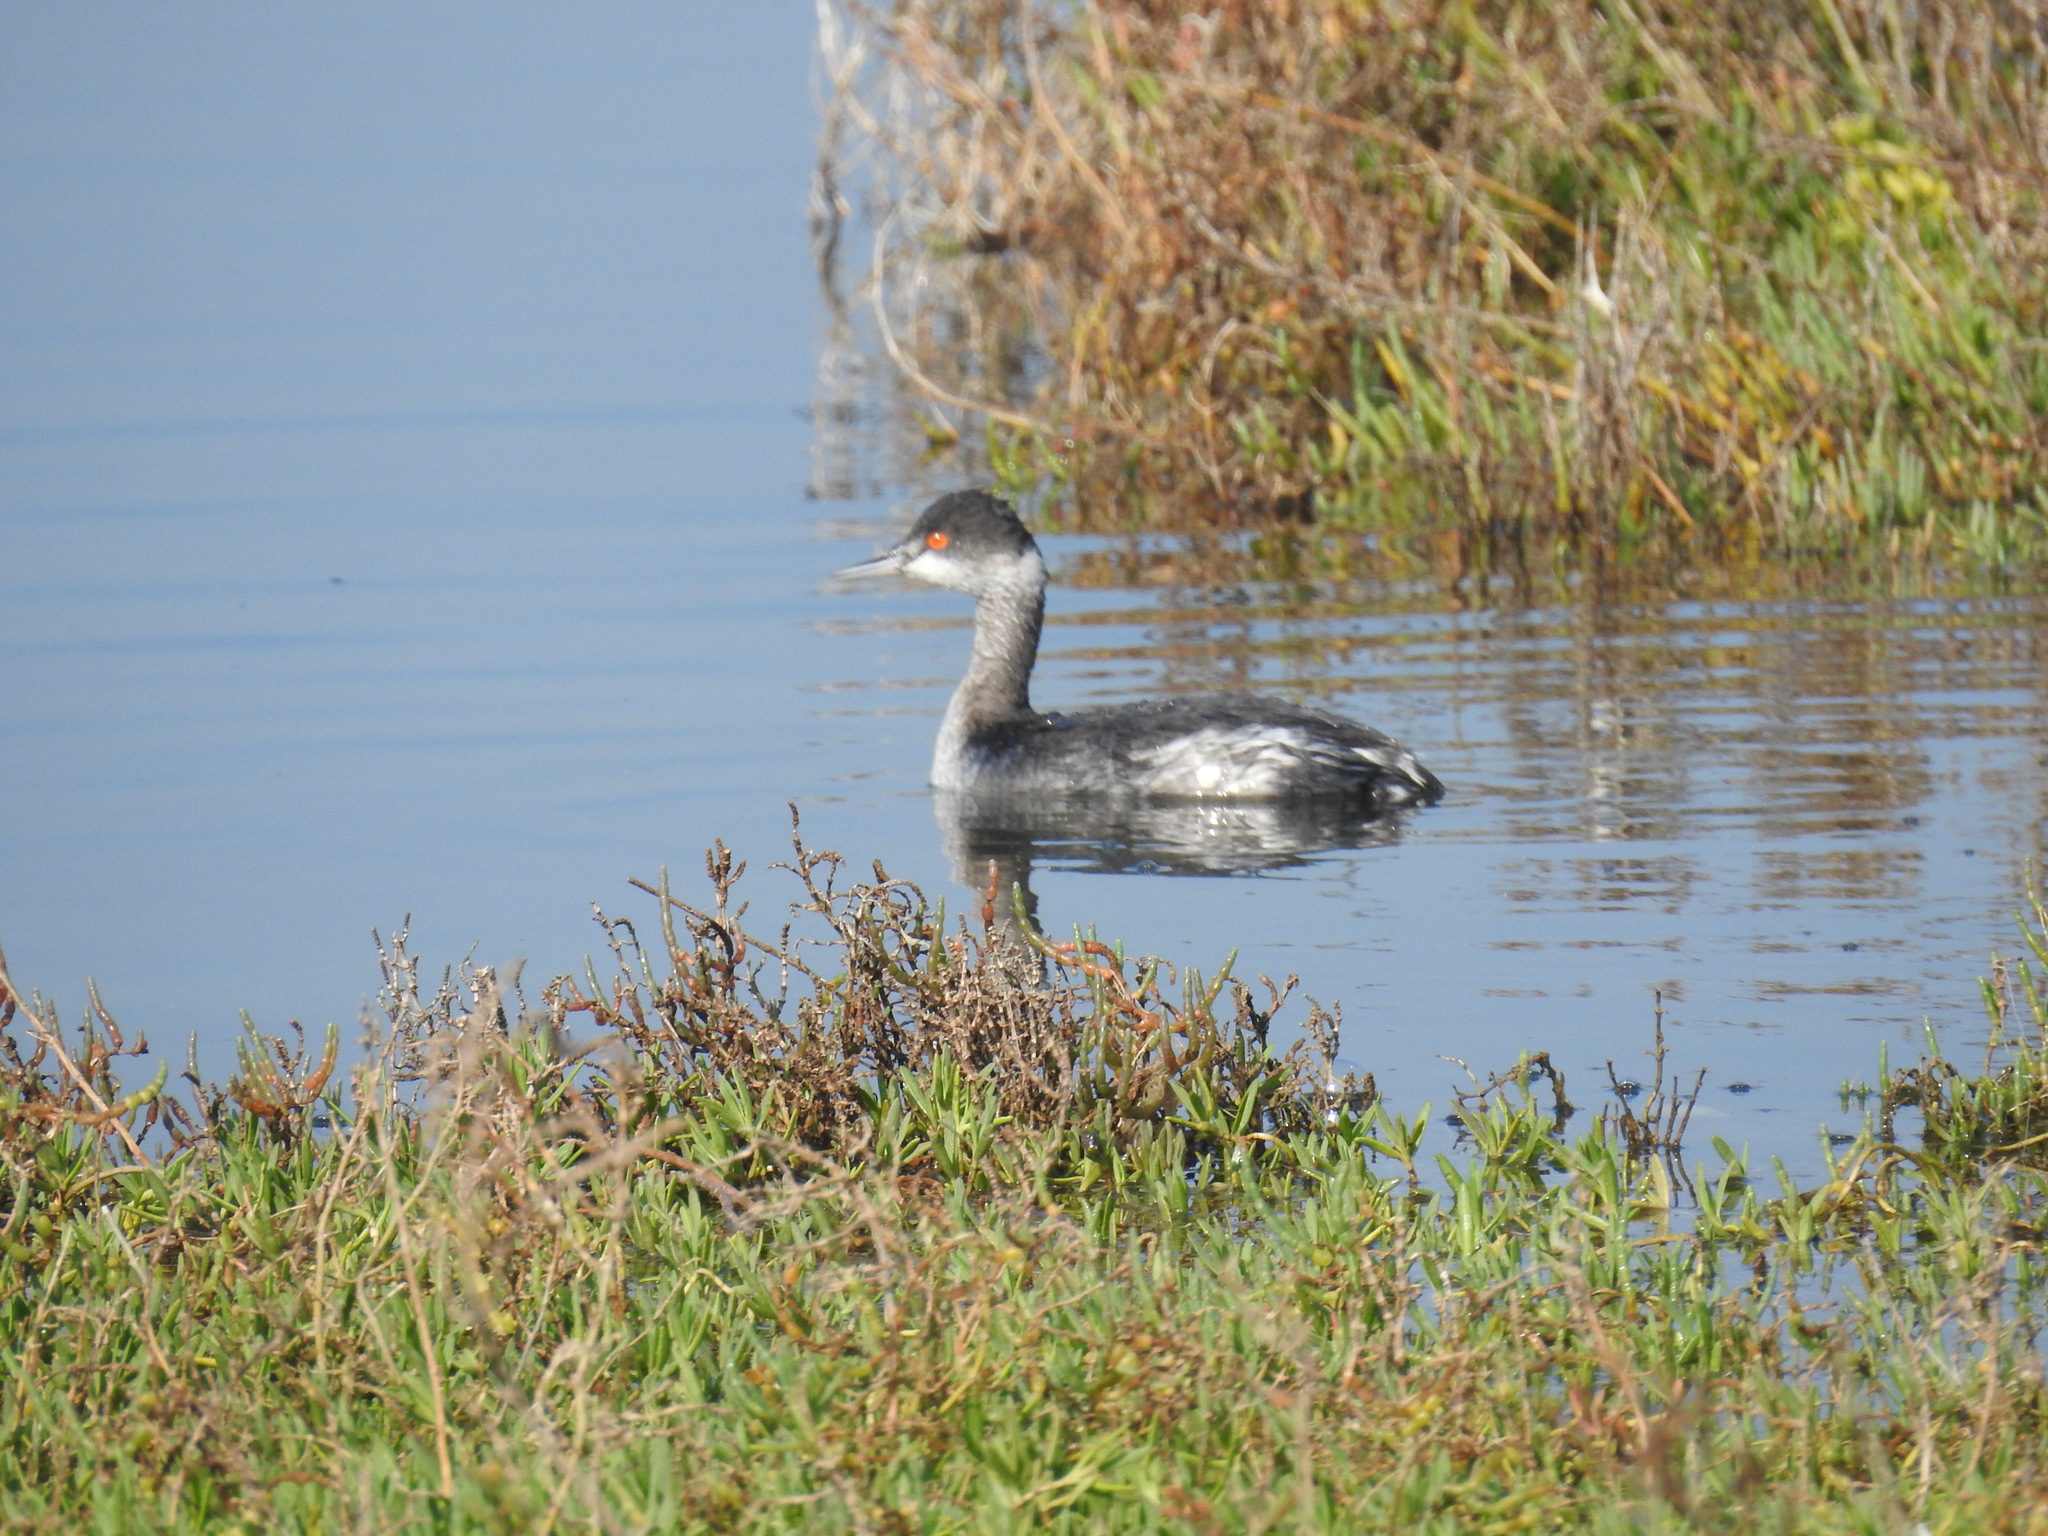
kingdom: Animalia
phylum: Chordata
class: Aves
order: Podicipediformes
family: Podicipedidae
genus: Podiceps
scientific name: Podiceps nigricollis
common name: Black-necked grebe
